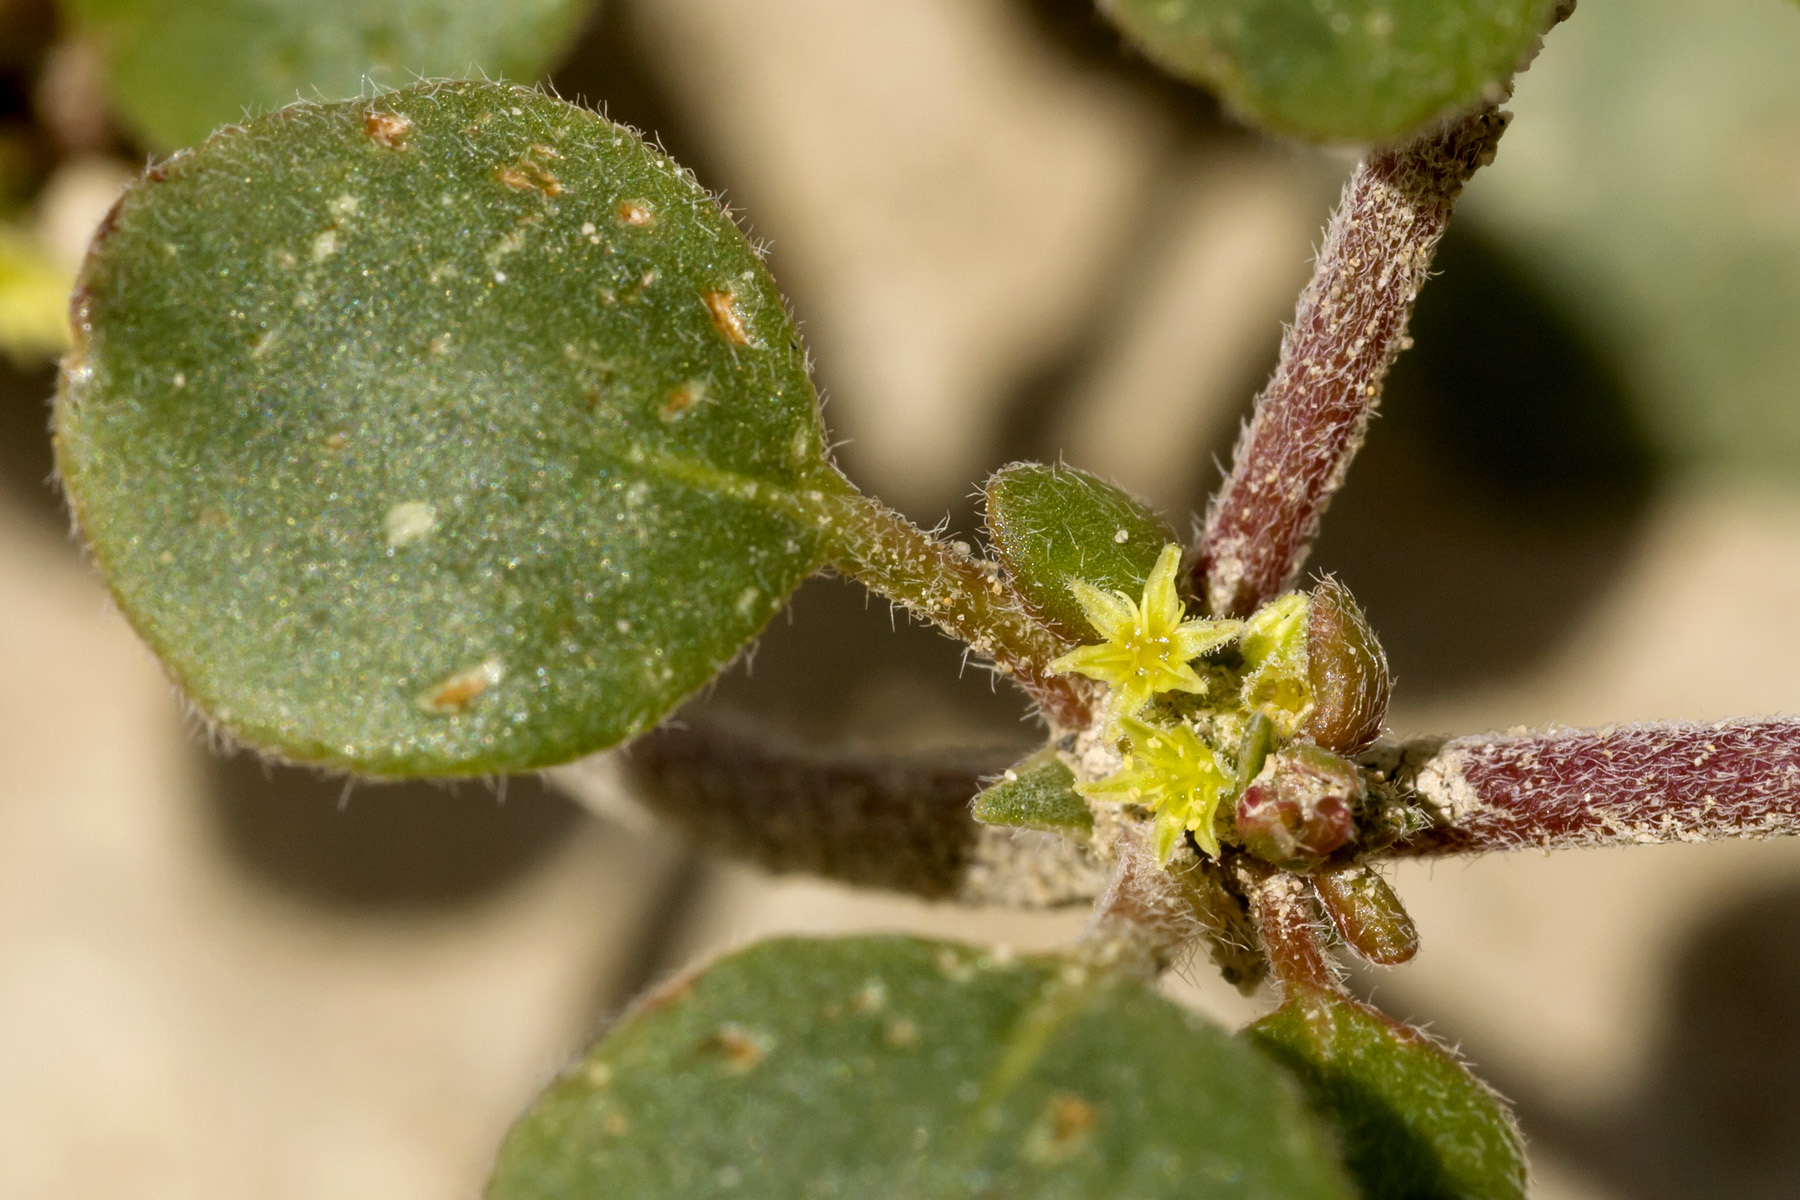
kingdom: Plantae
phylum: Tracheophyta
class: Magnoliopsida
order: Caryophyllales
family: Polygonaceae
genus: Eriogonum
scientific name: Eriogonum divaricatum
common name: Divergent wild buckwheat
